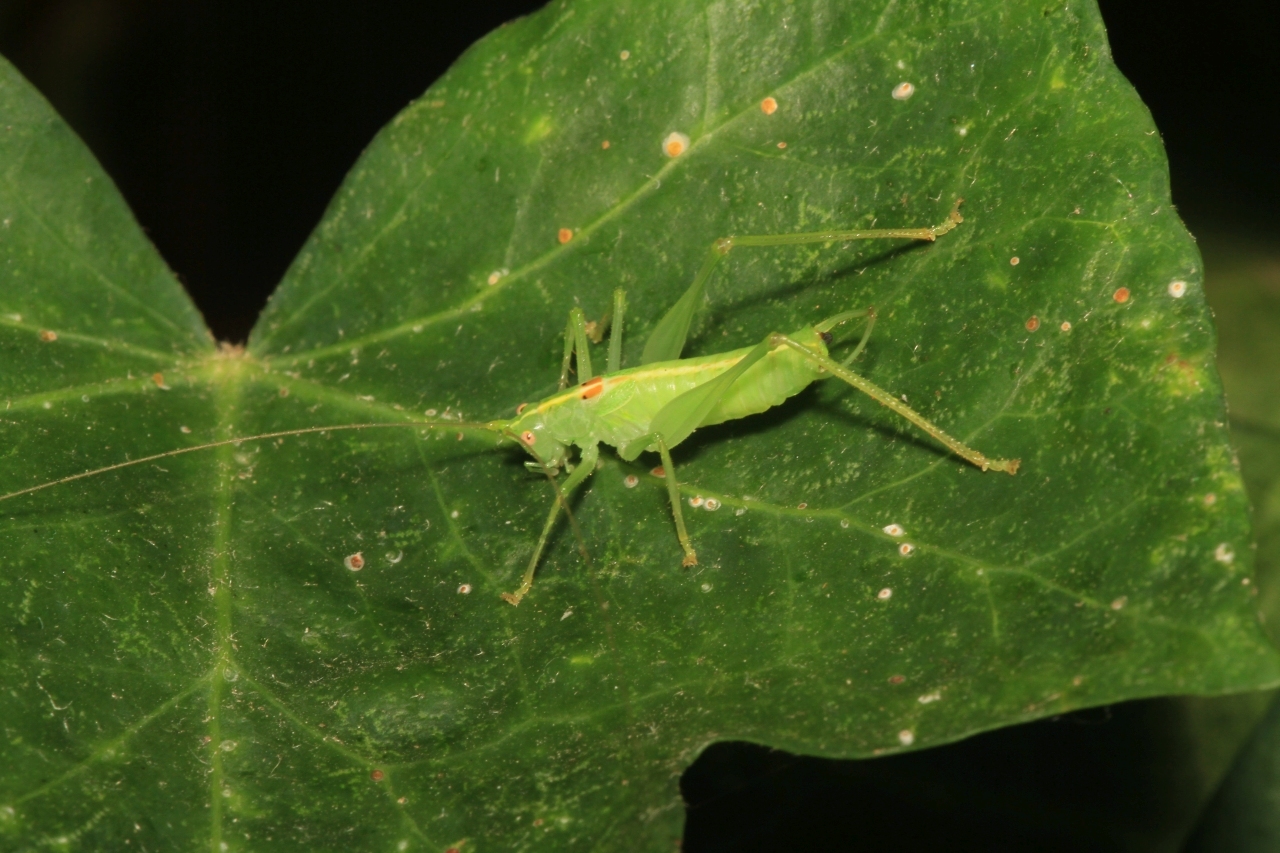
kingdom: Animalia
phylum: Arthropoda
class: Insecta
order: Orthoptera
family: Tettigoniidae
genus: Meconema
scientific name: Meconema meridionale
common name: Southern oak bush-cricket
